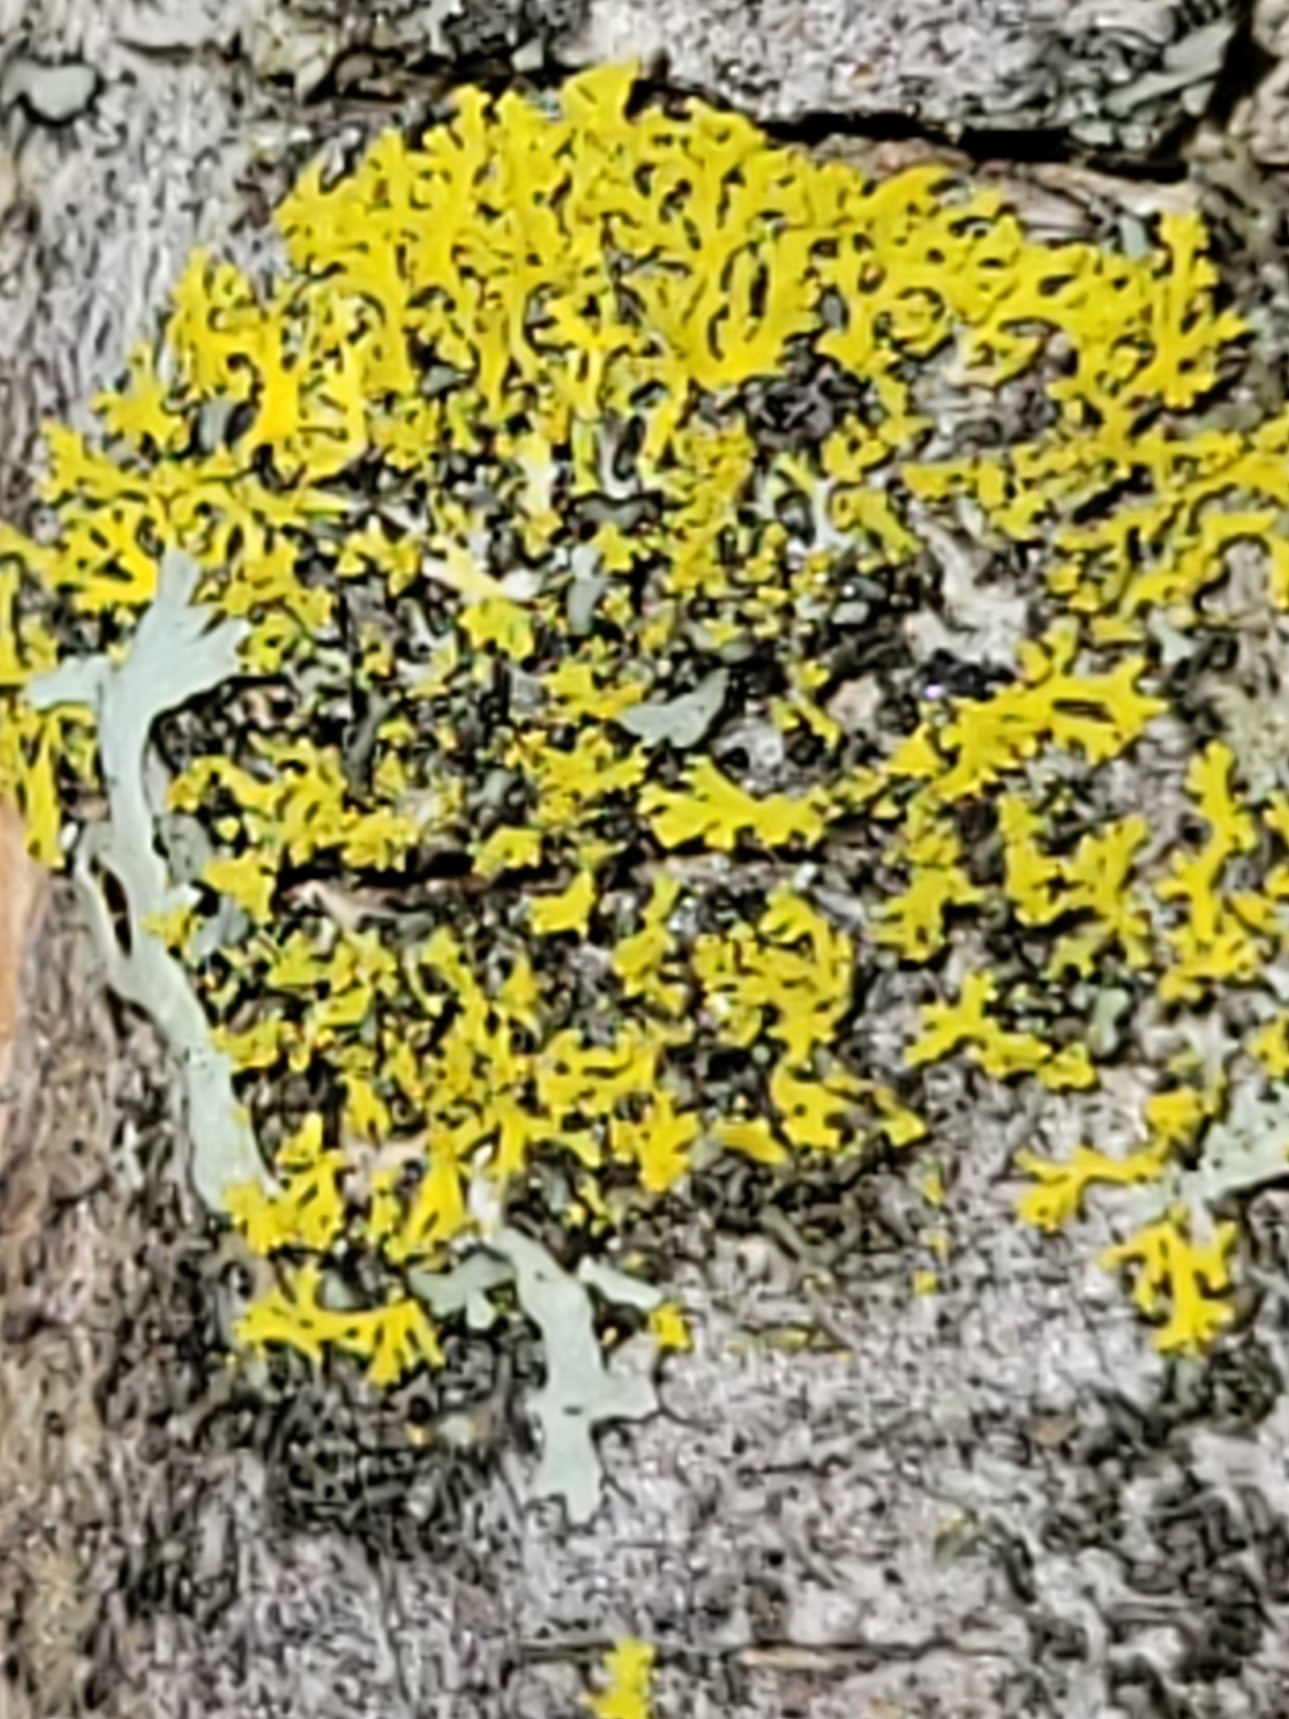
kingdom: Fungi
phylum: Ascomycota
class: Candelariomycetes
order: Candelariales
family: Candelariaceae
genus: Candelaria
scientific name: Candelaria concolor
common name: Candleflame lichen
